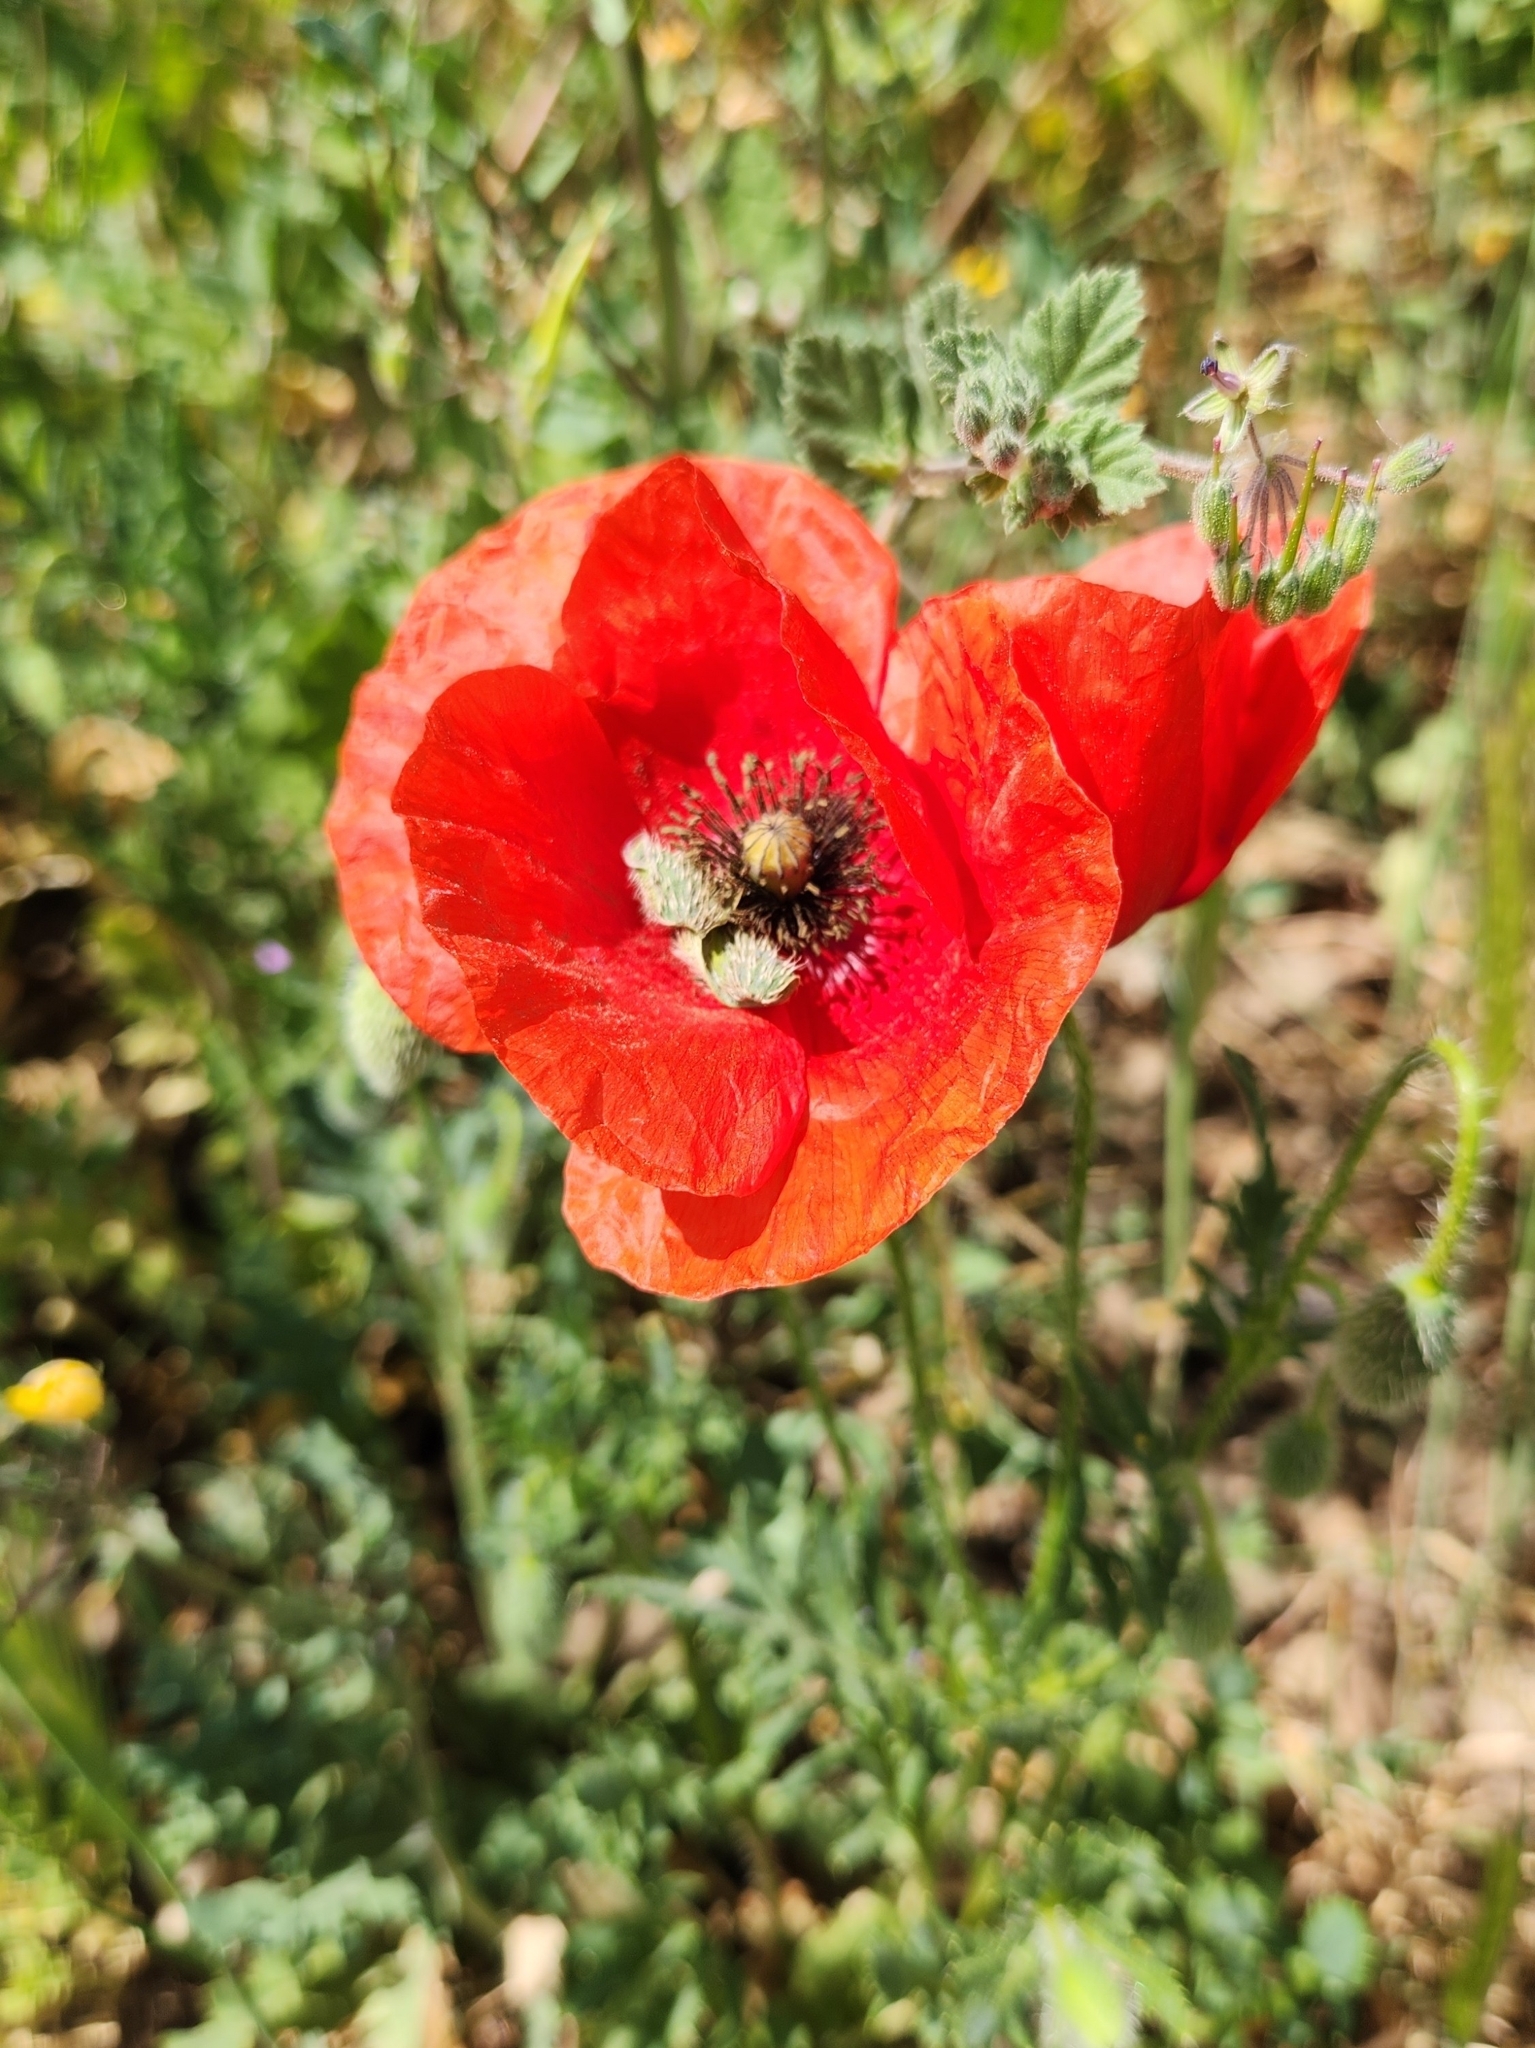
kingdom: Plantae
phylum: Tracheophyta
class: Magnoliopsida
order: Ranunculales
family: Papaveraceae
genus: Papaver
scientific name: Papaver rhoeas
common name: Corn poppy
